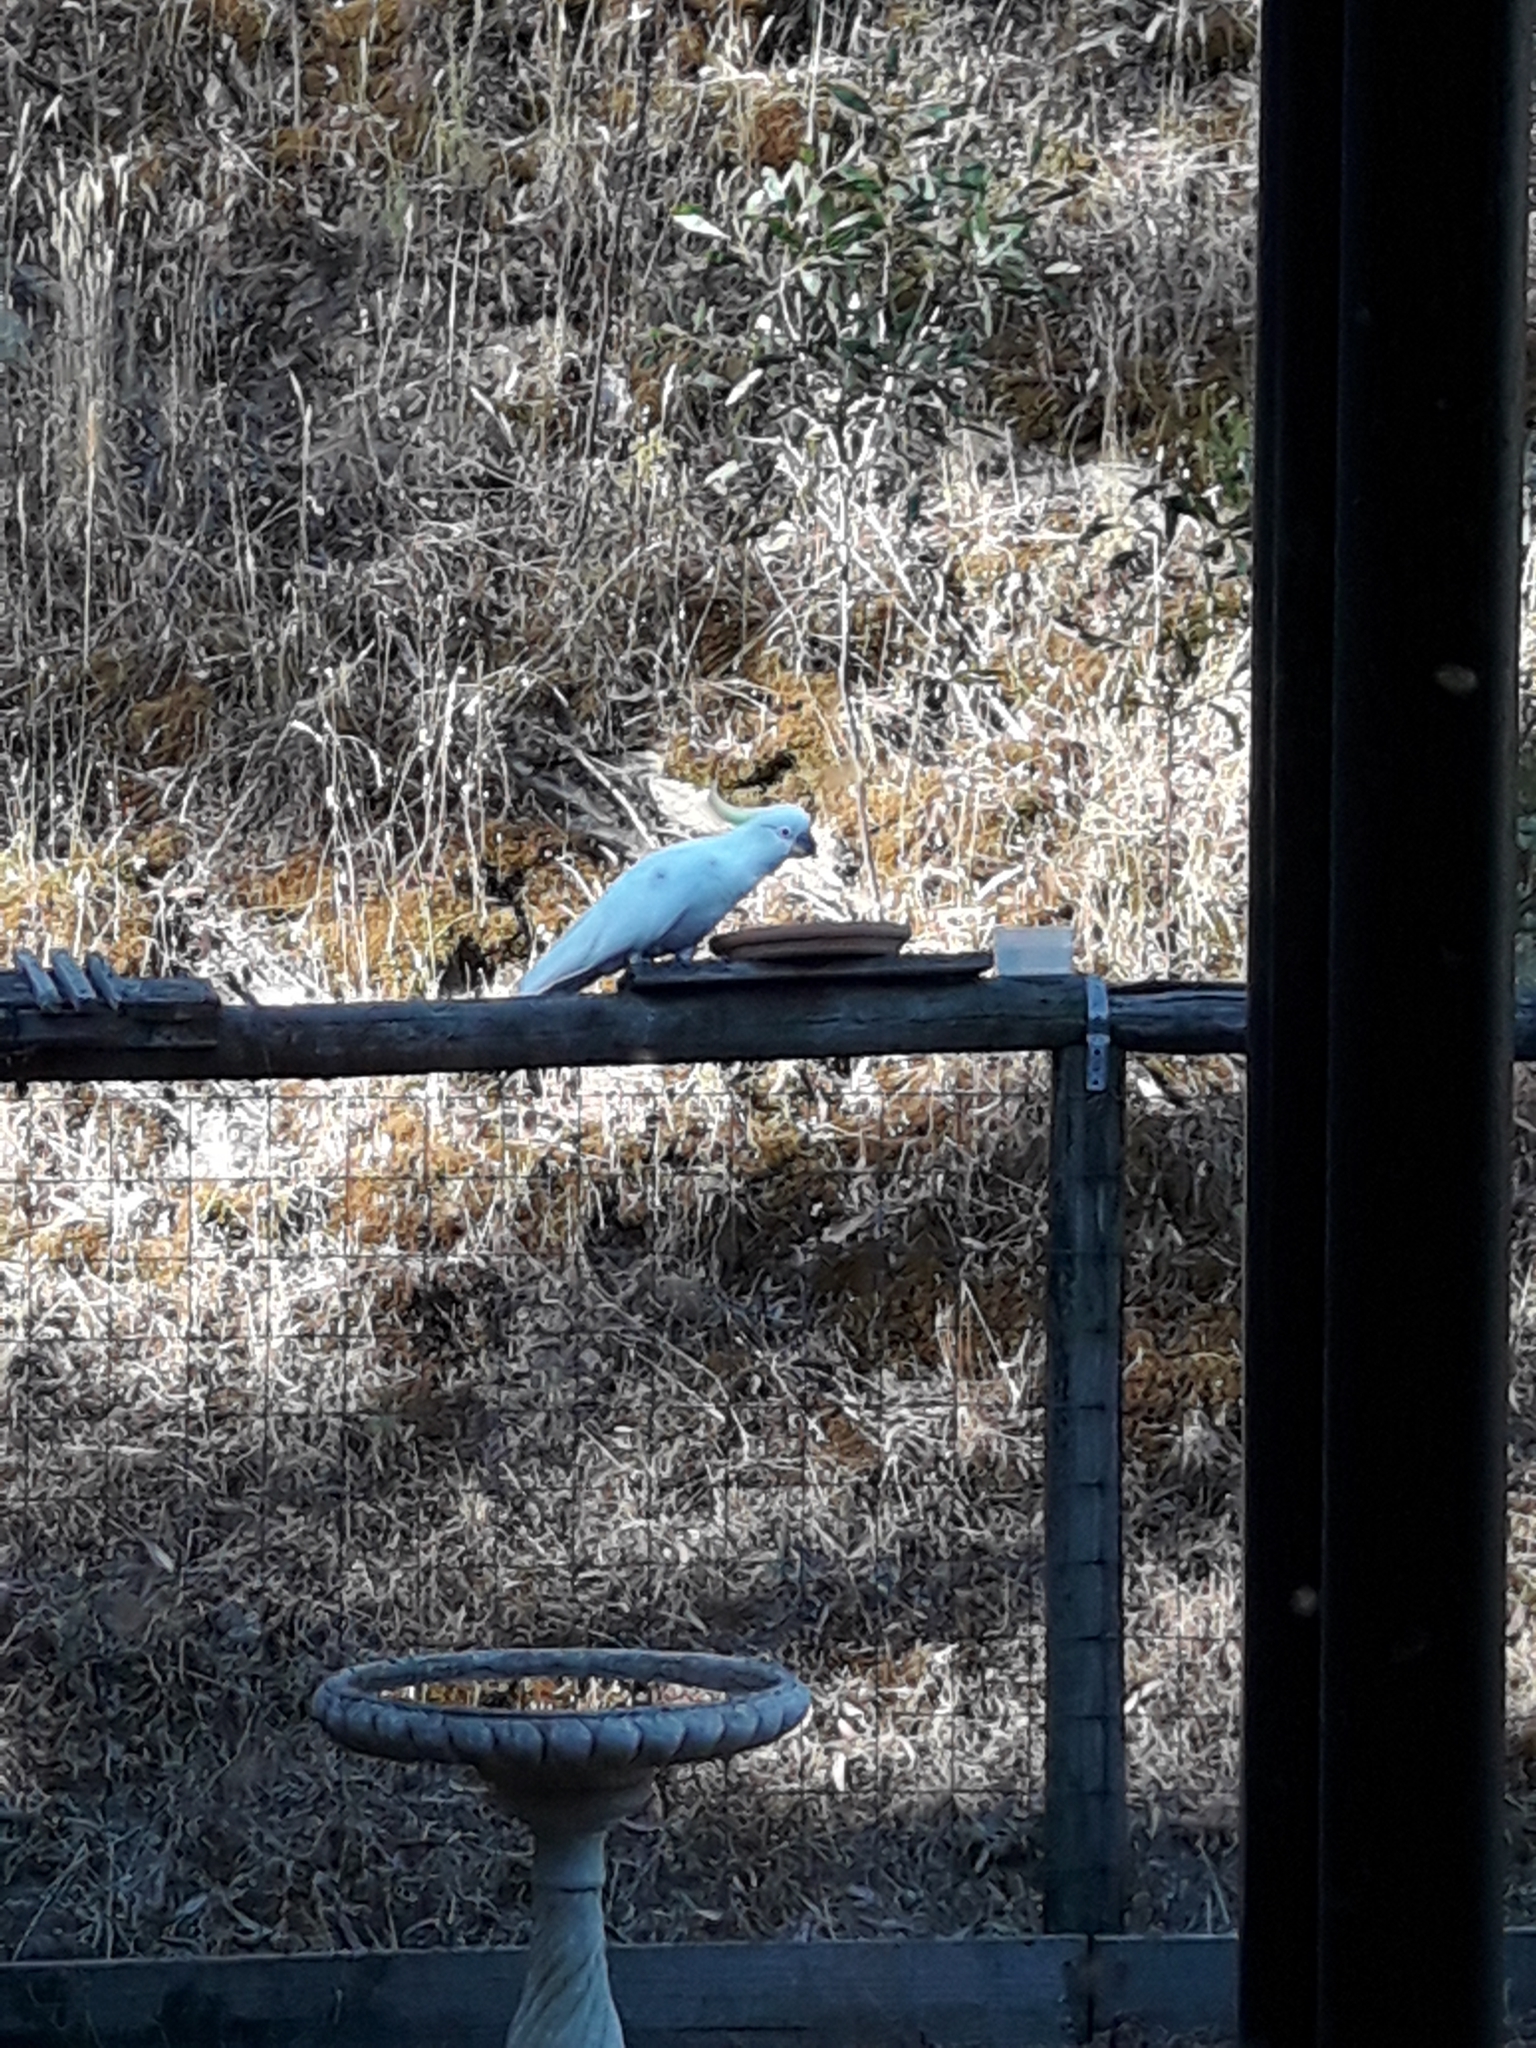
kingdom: Animalia
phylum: Chordata
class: Aves
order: Psittaciformes
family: Psittacidae
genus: Cacatua
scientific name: Cacatua galerita
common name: Sulphur-crested cockatoo
